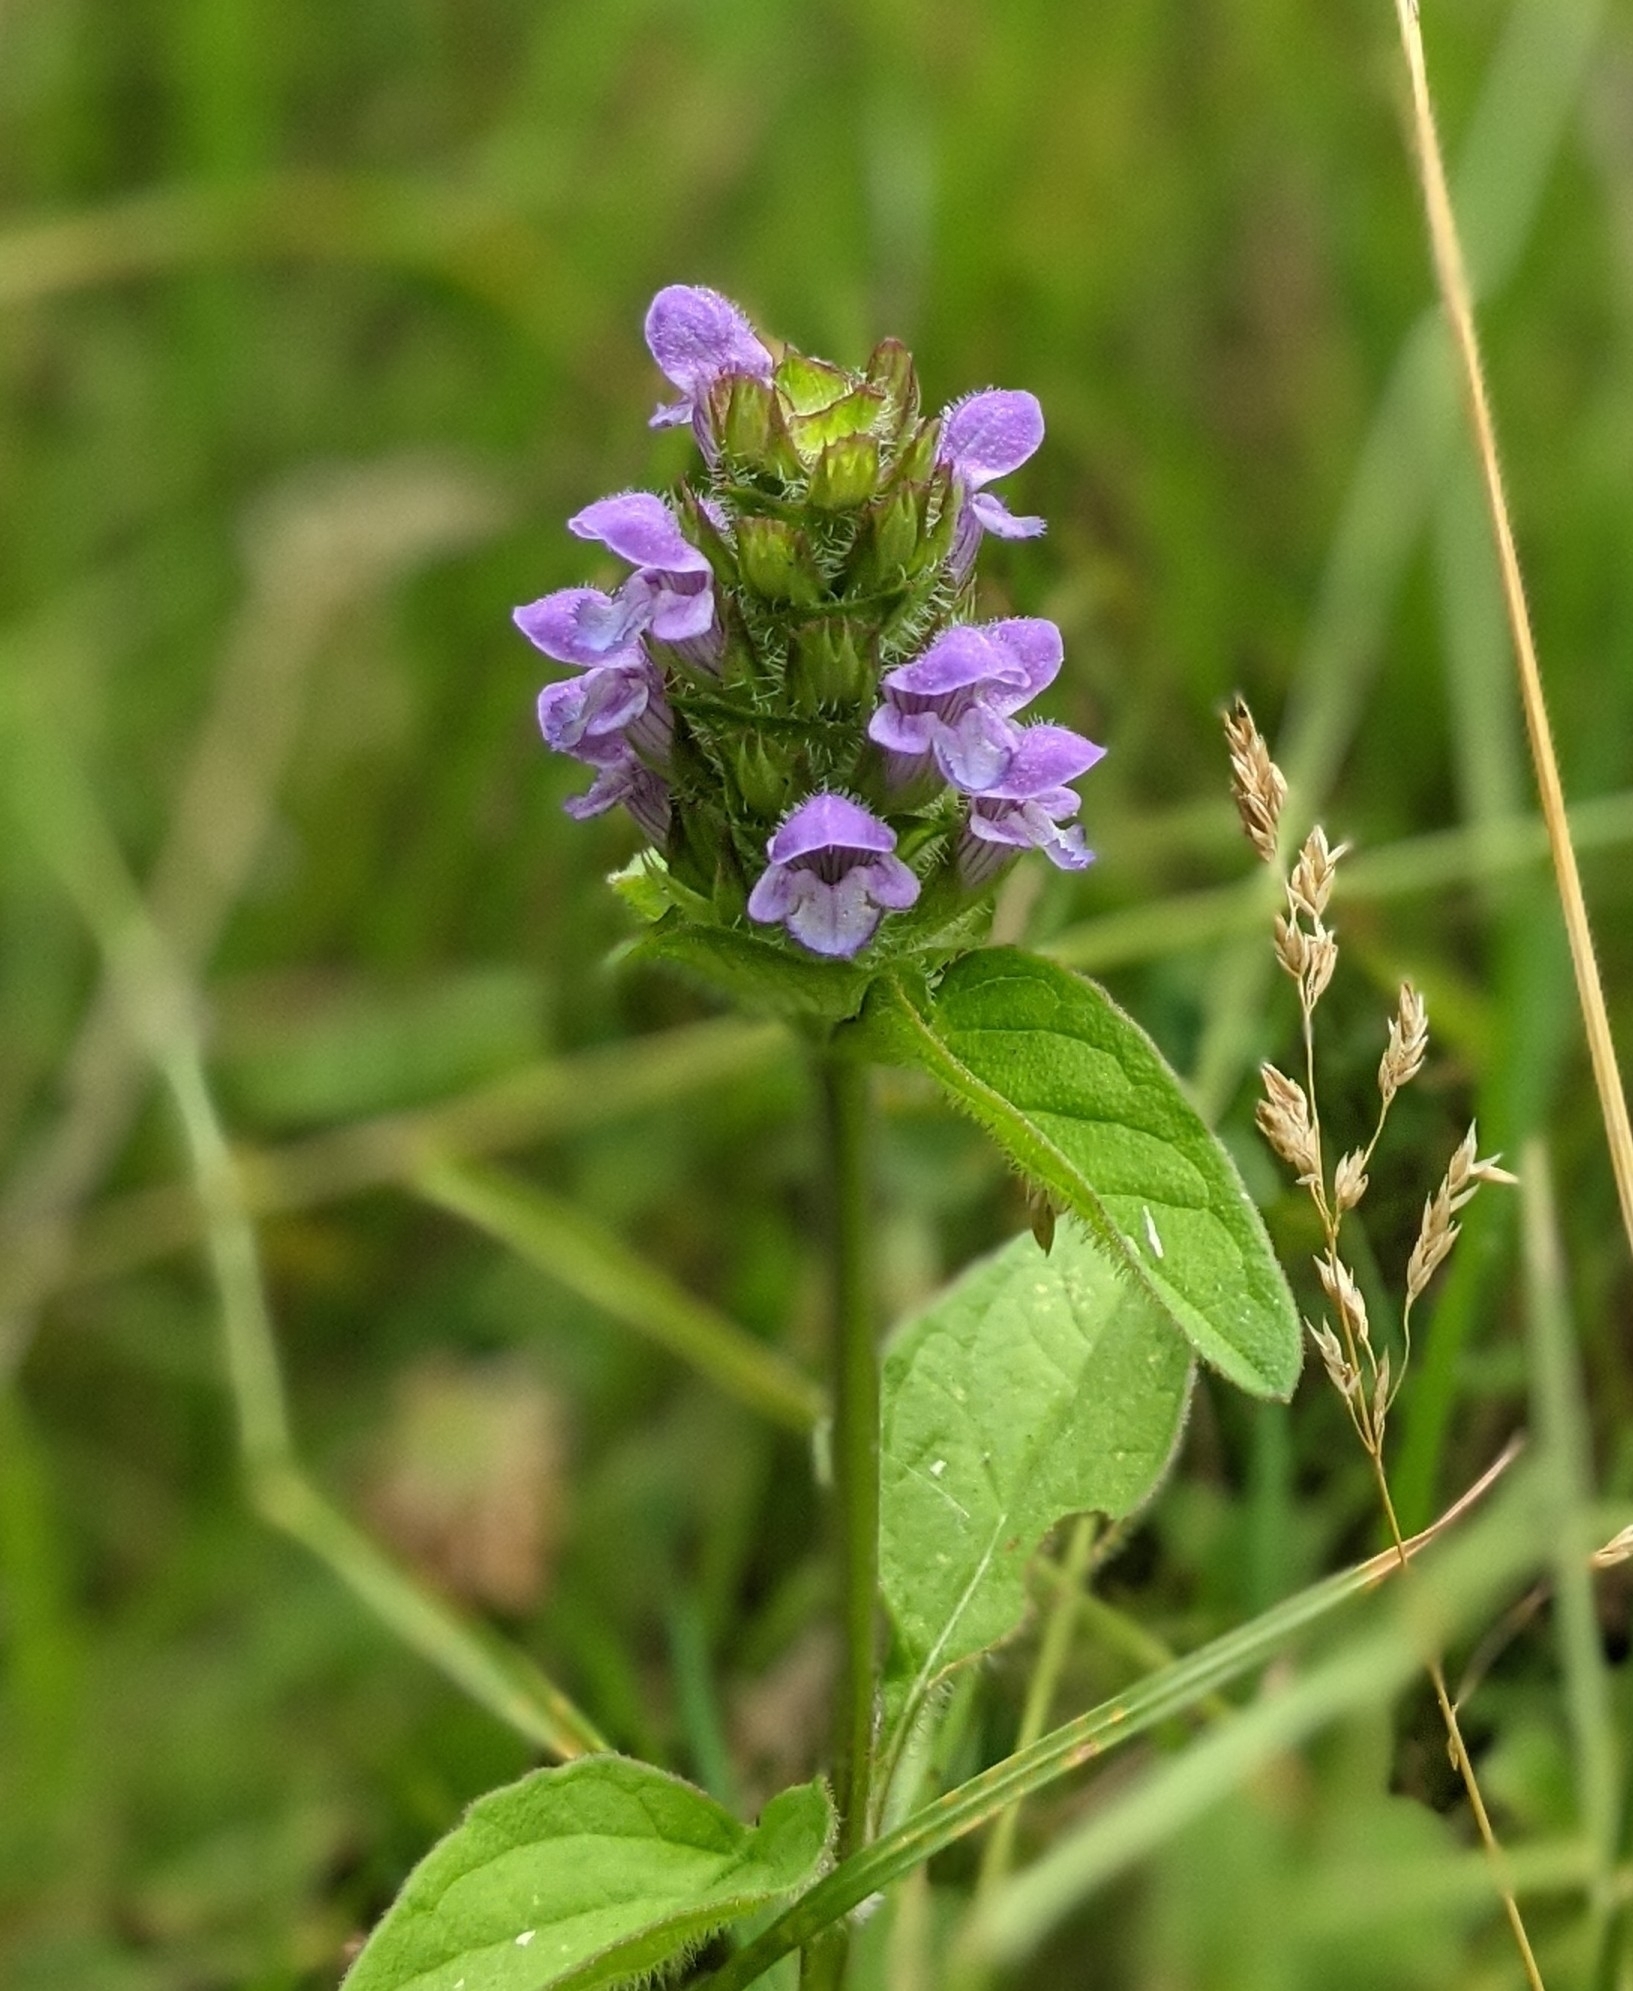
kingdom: Plantae
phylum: Tracheophyta
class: Magnoliopsida
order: Lamiales
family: Lamiaceae
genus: Prunella
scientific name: Prunella vulgaris
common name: Heal-all
